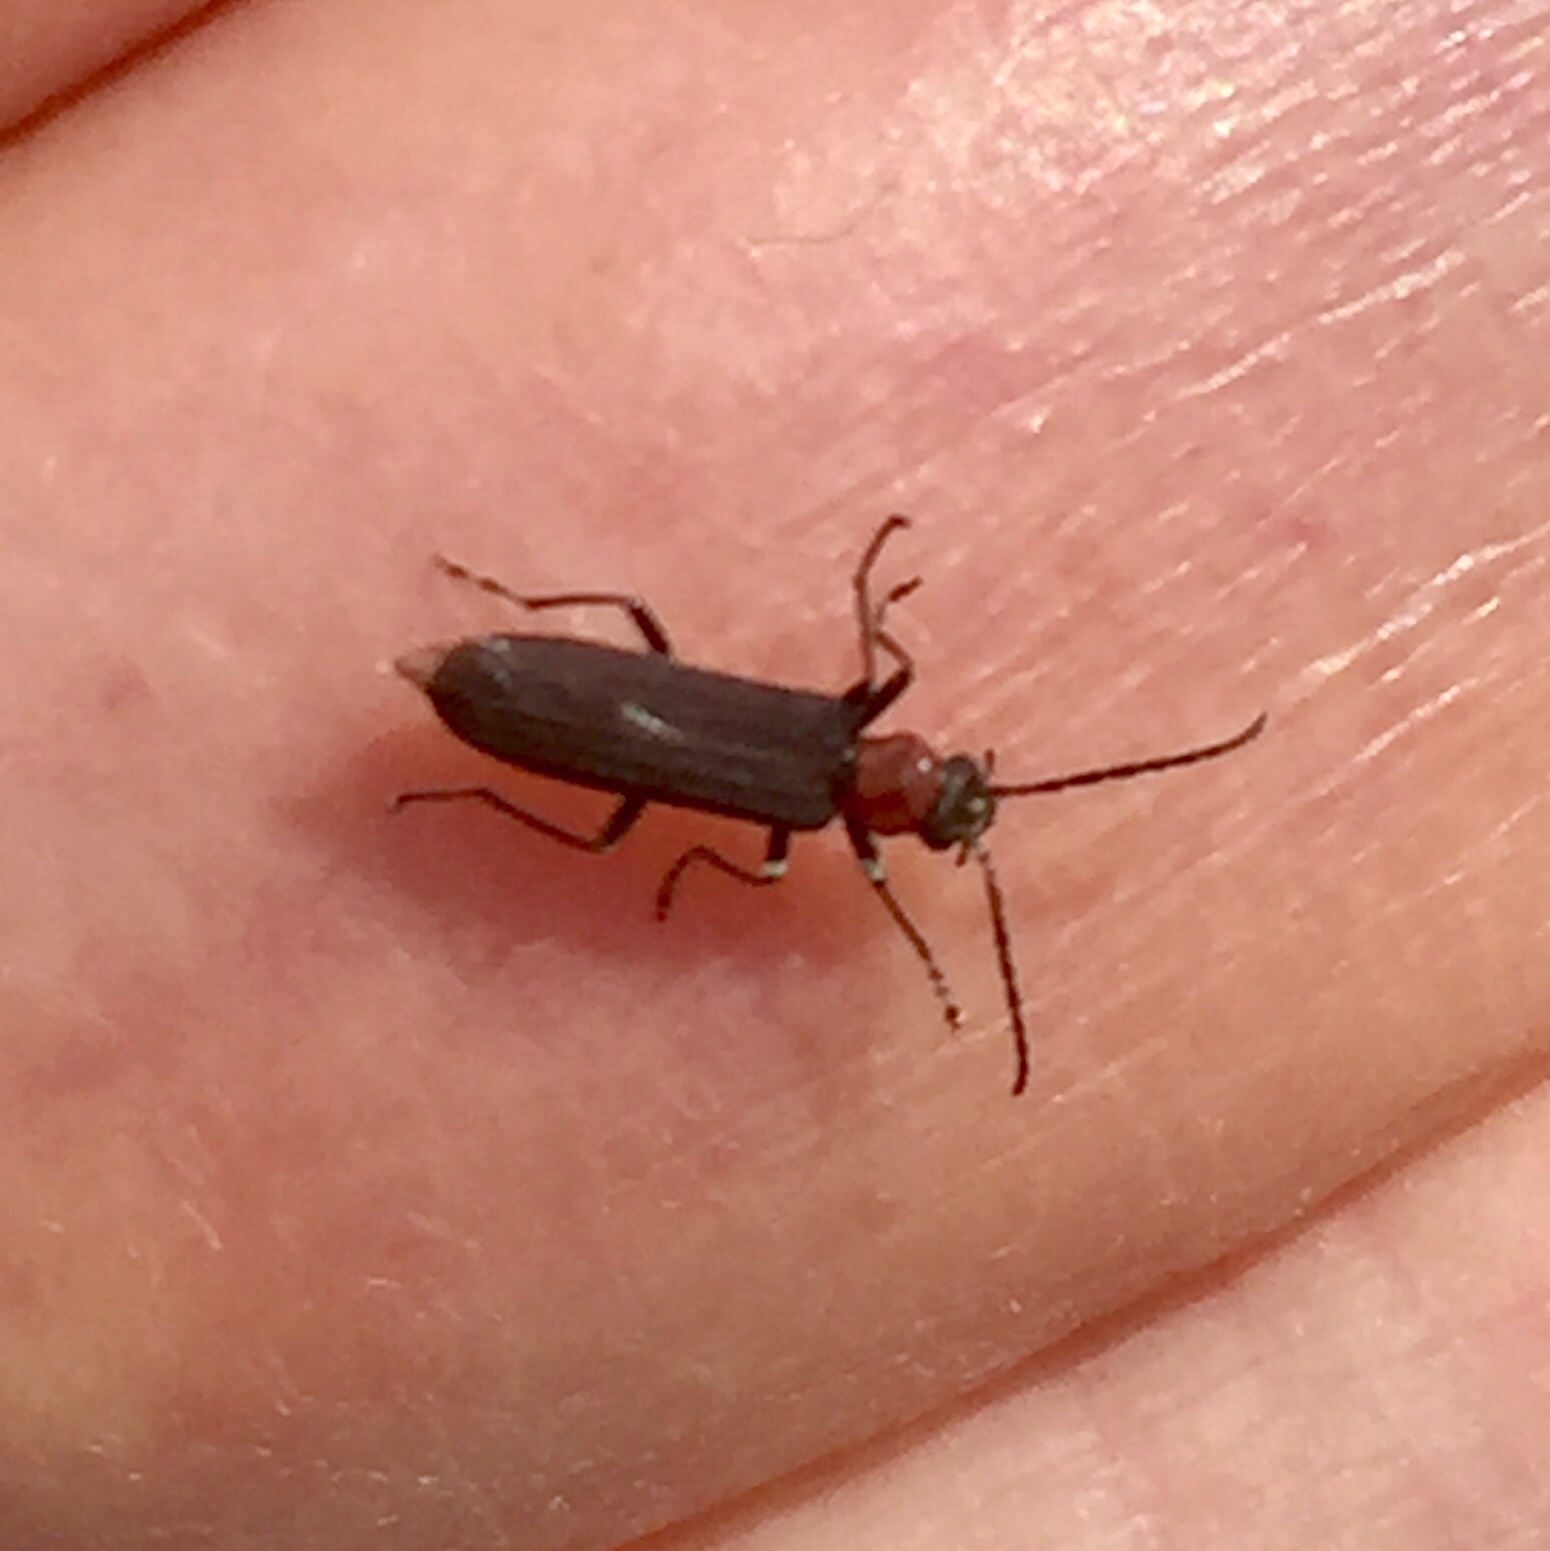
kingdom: Animalia
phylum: Arthropoda
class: Insecta
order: Coleoptera
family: Oedemeridae
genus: Ischnomera
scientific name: Ischnomera
